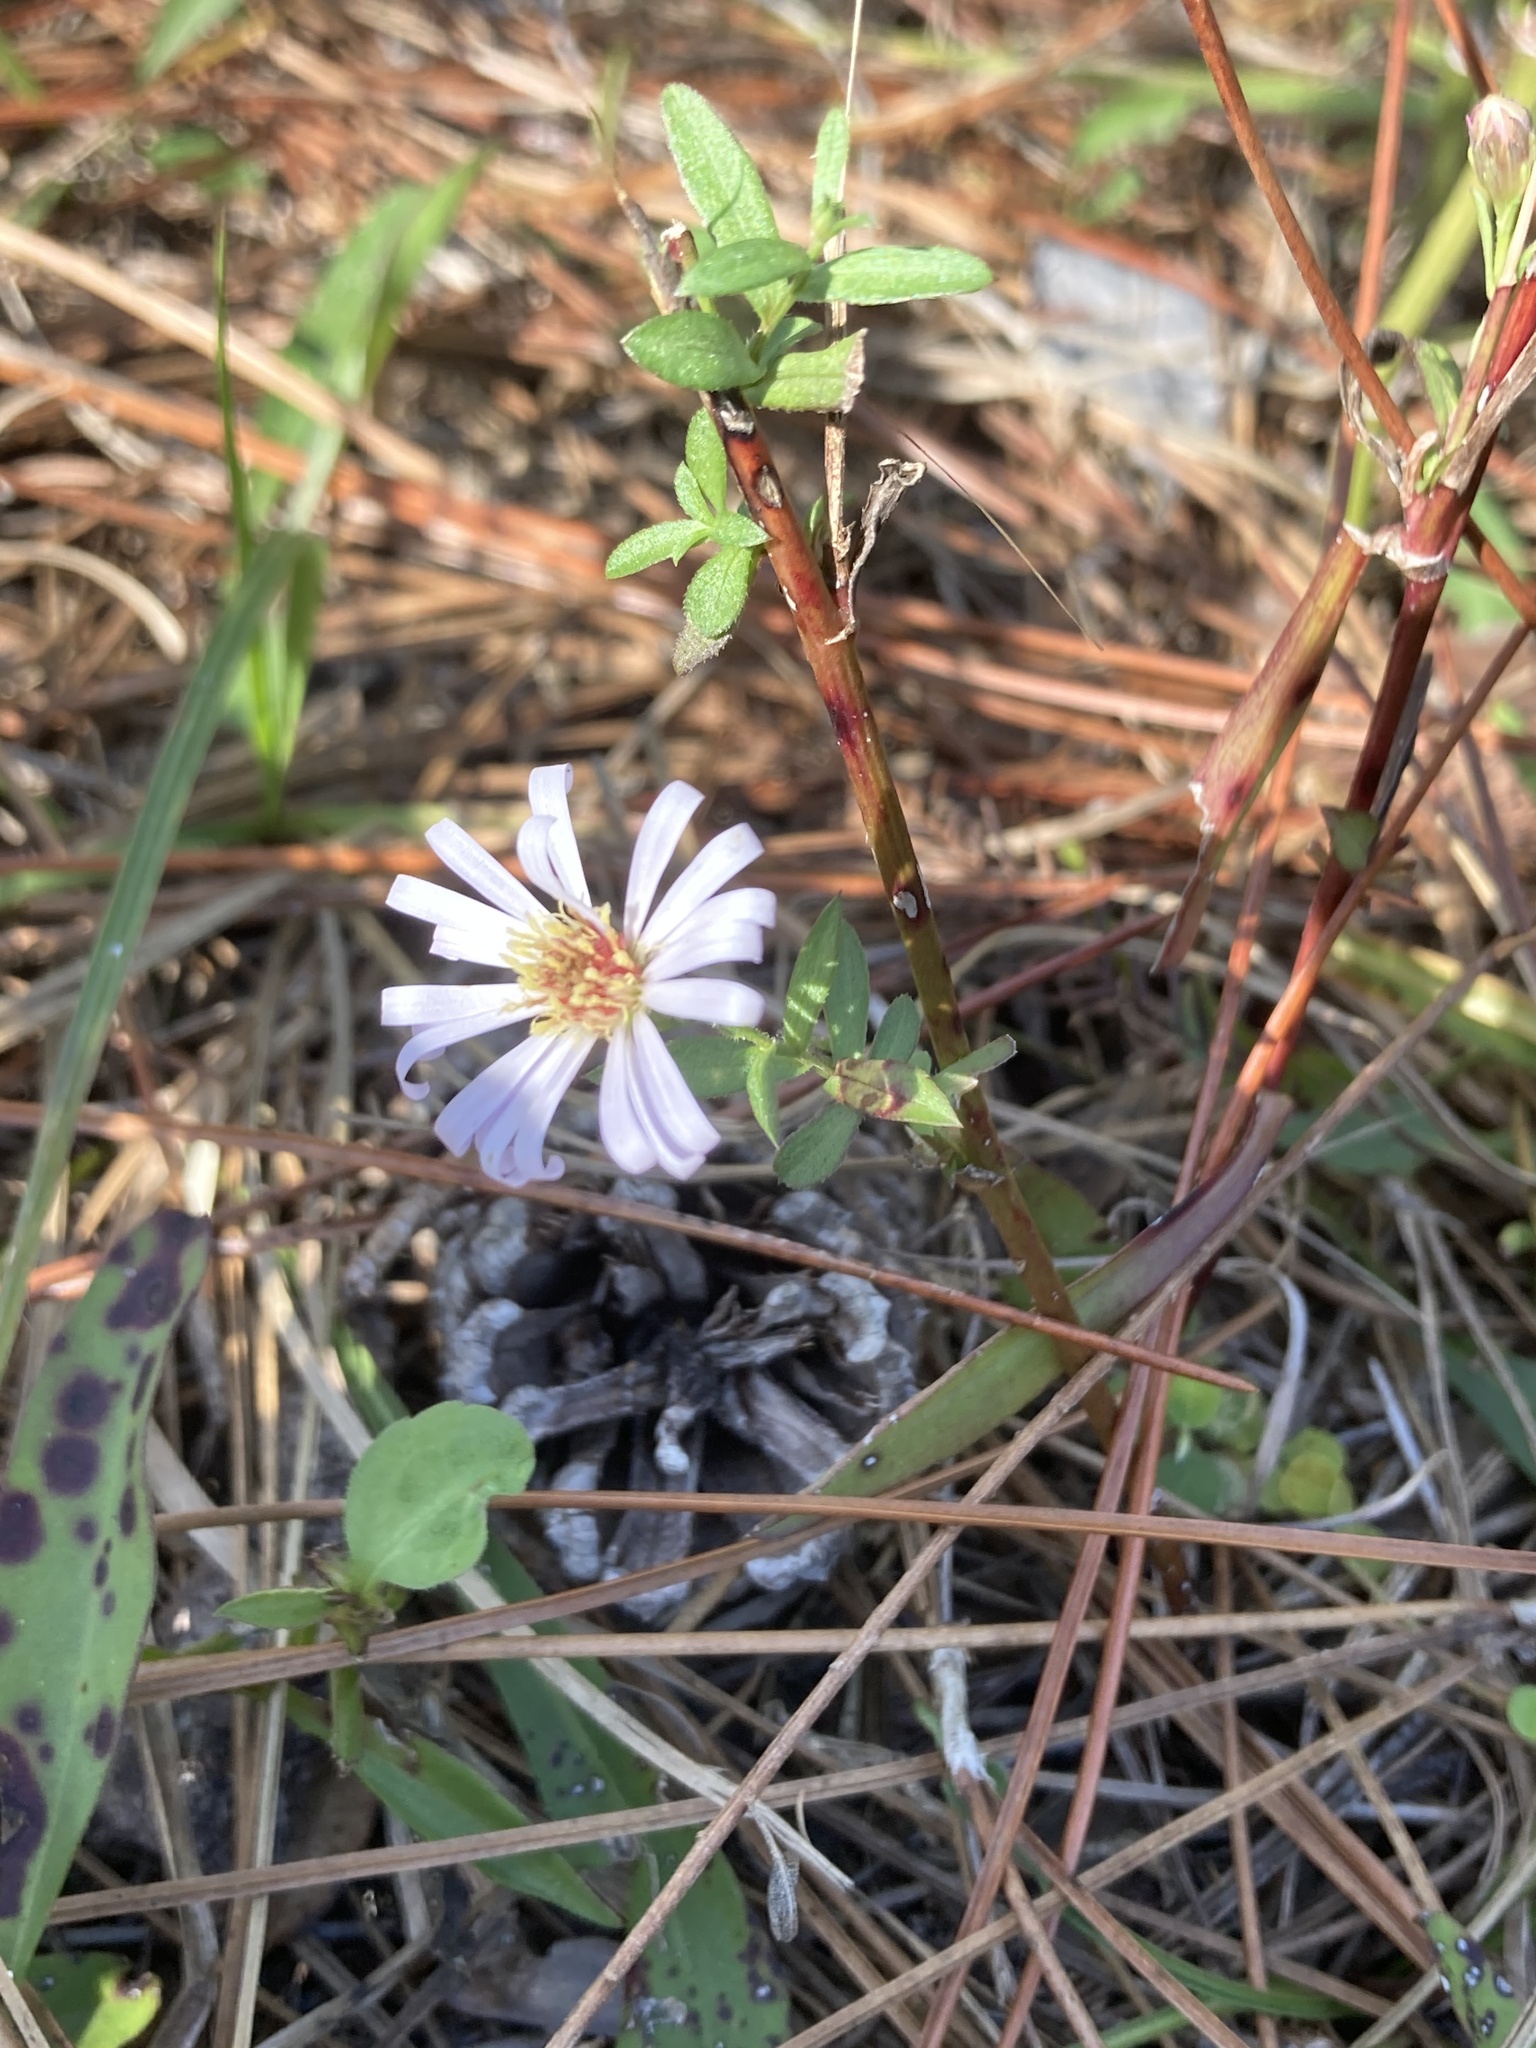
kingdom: Plantae
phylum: Tracheophyta
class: Magnoliopsida
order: Asterales
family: Asteraceae
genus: Symphyotrichum
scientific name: Symphyotrichum simmondsii
